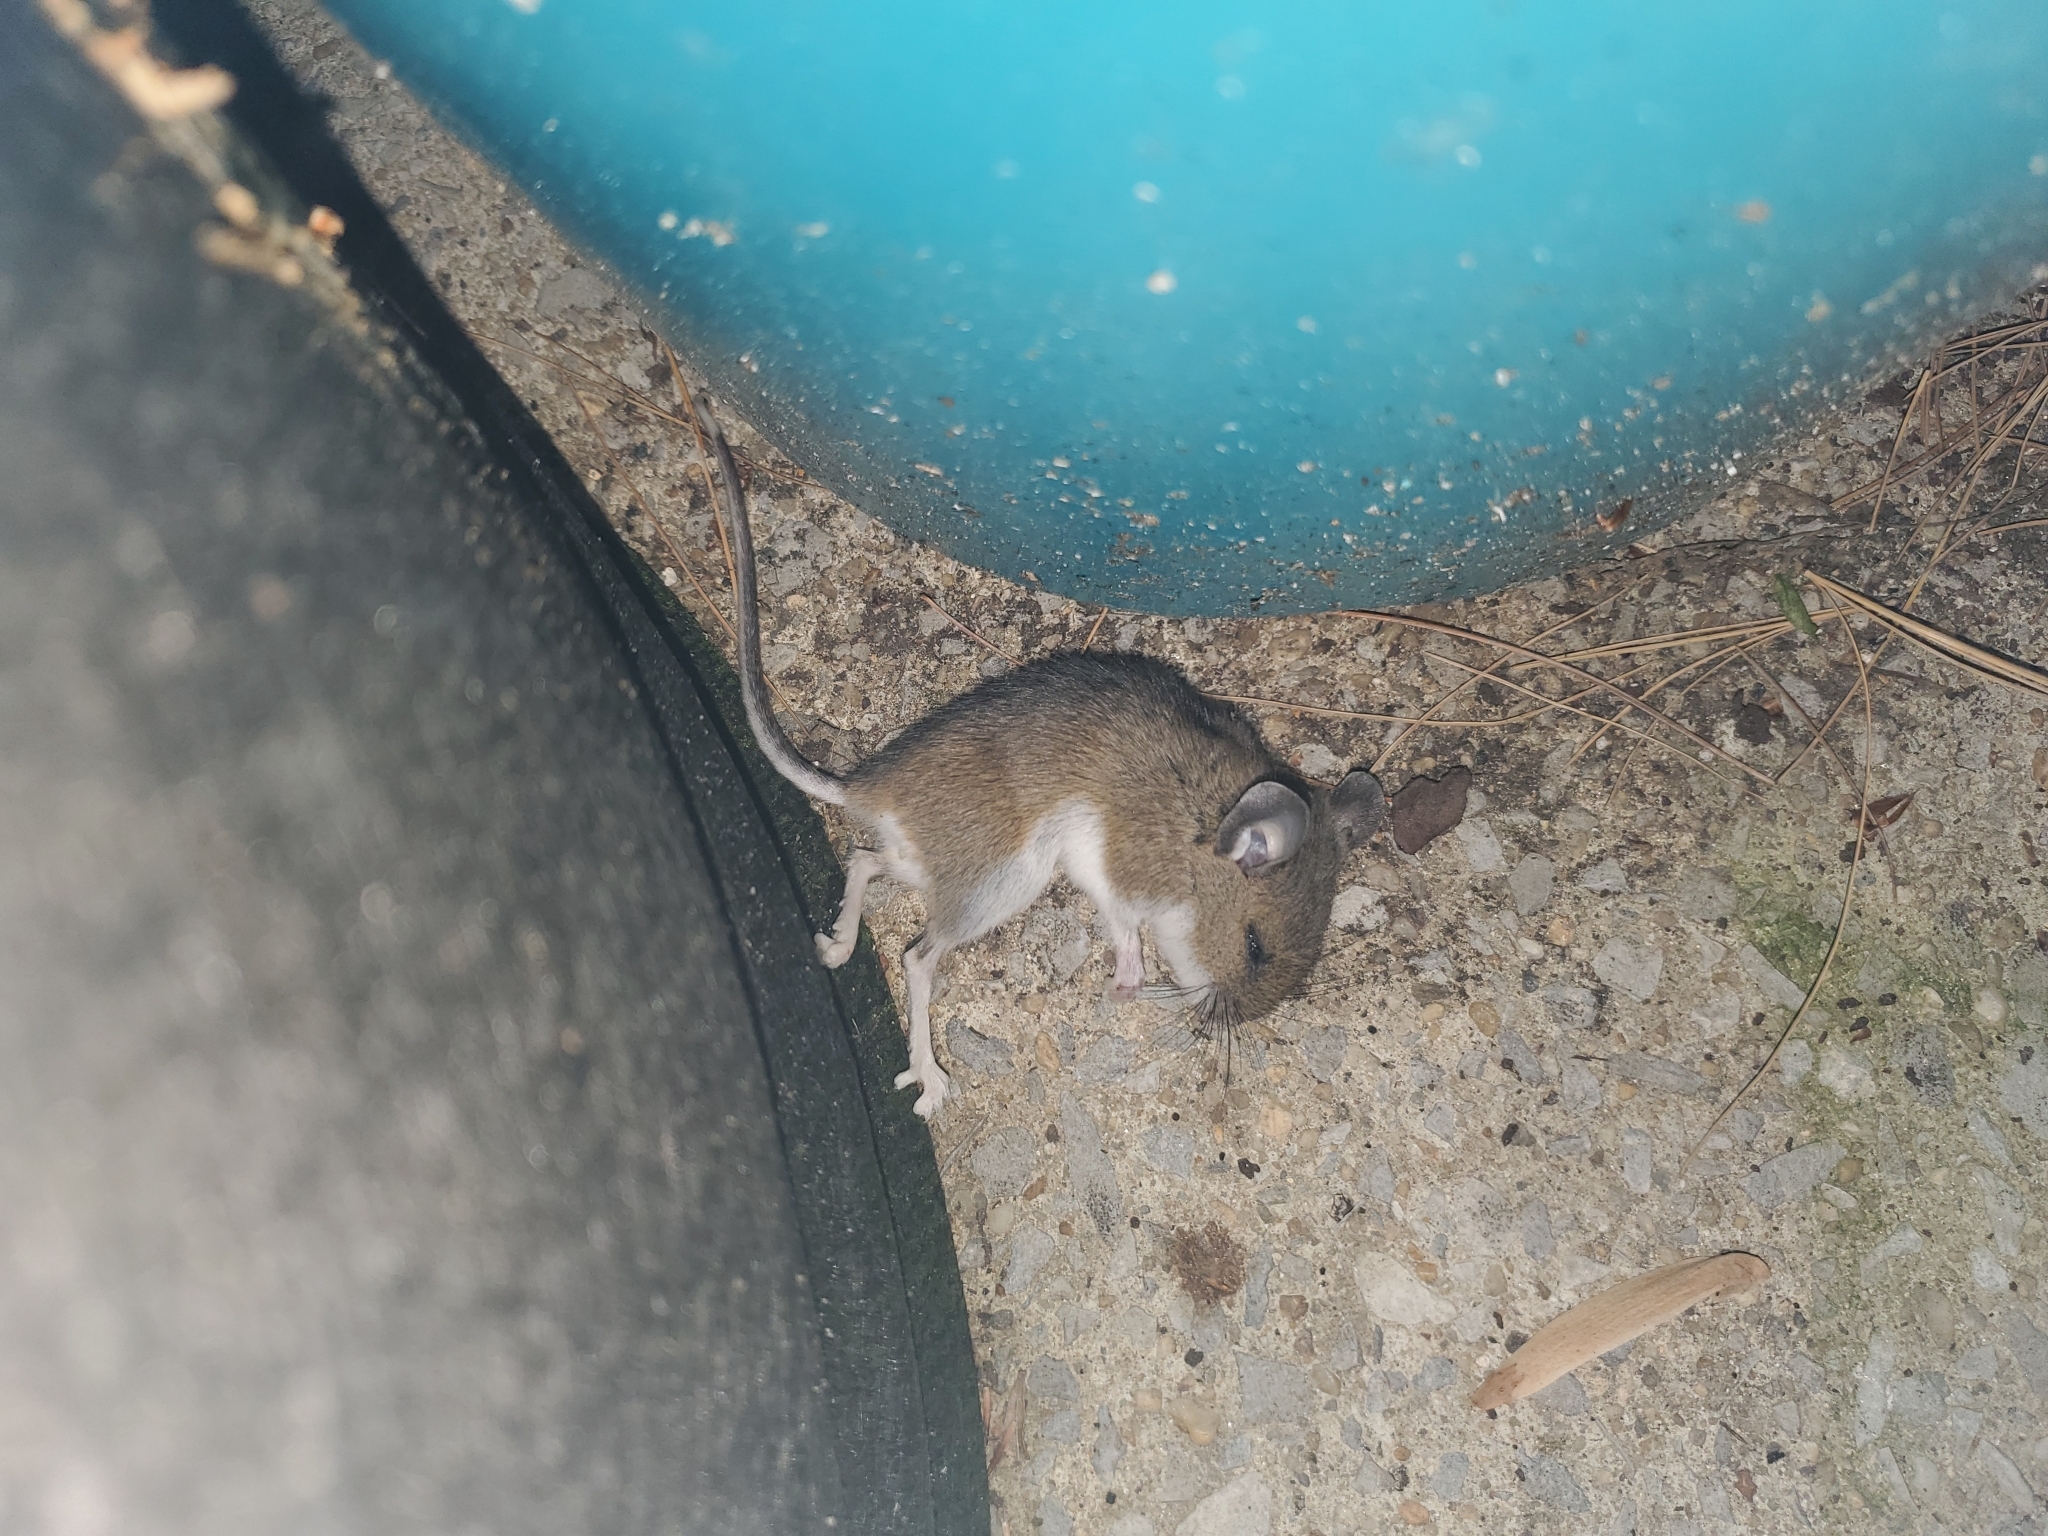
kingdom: Animalia
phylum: Chordata
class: Mammalia
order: Rodentia
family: Cricetidae
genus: Peromyscus
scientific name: Peromyscus maniculatus
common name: Deer mouse
